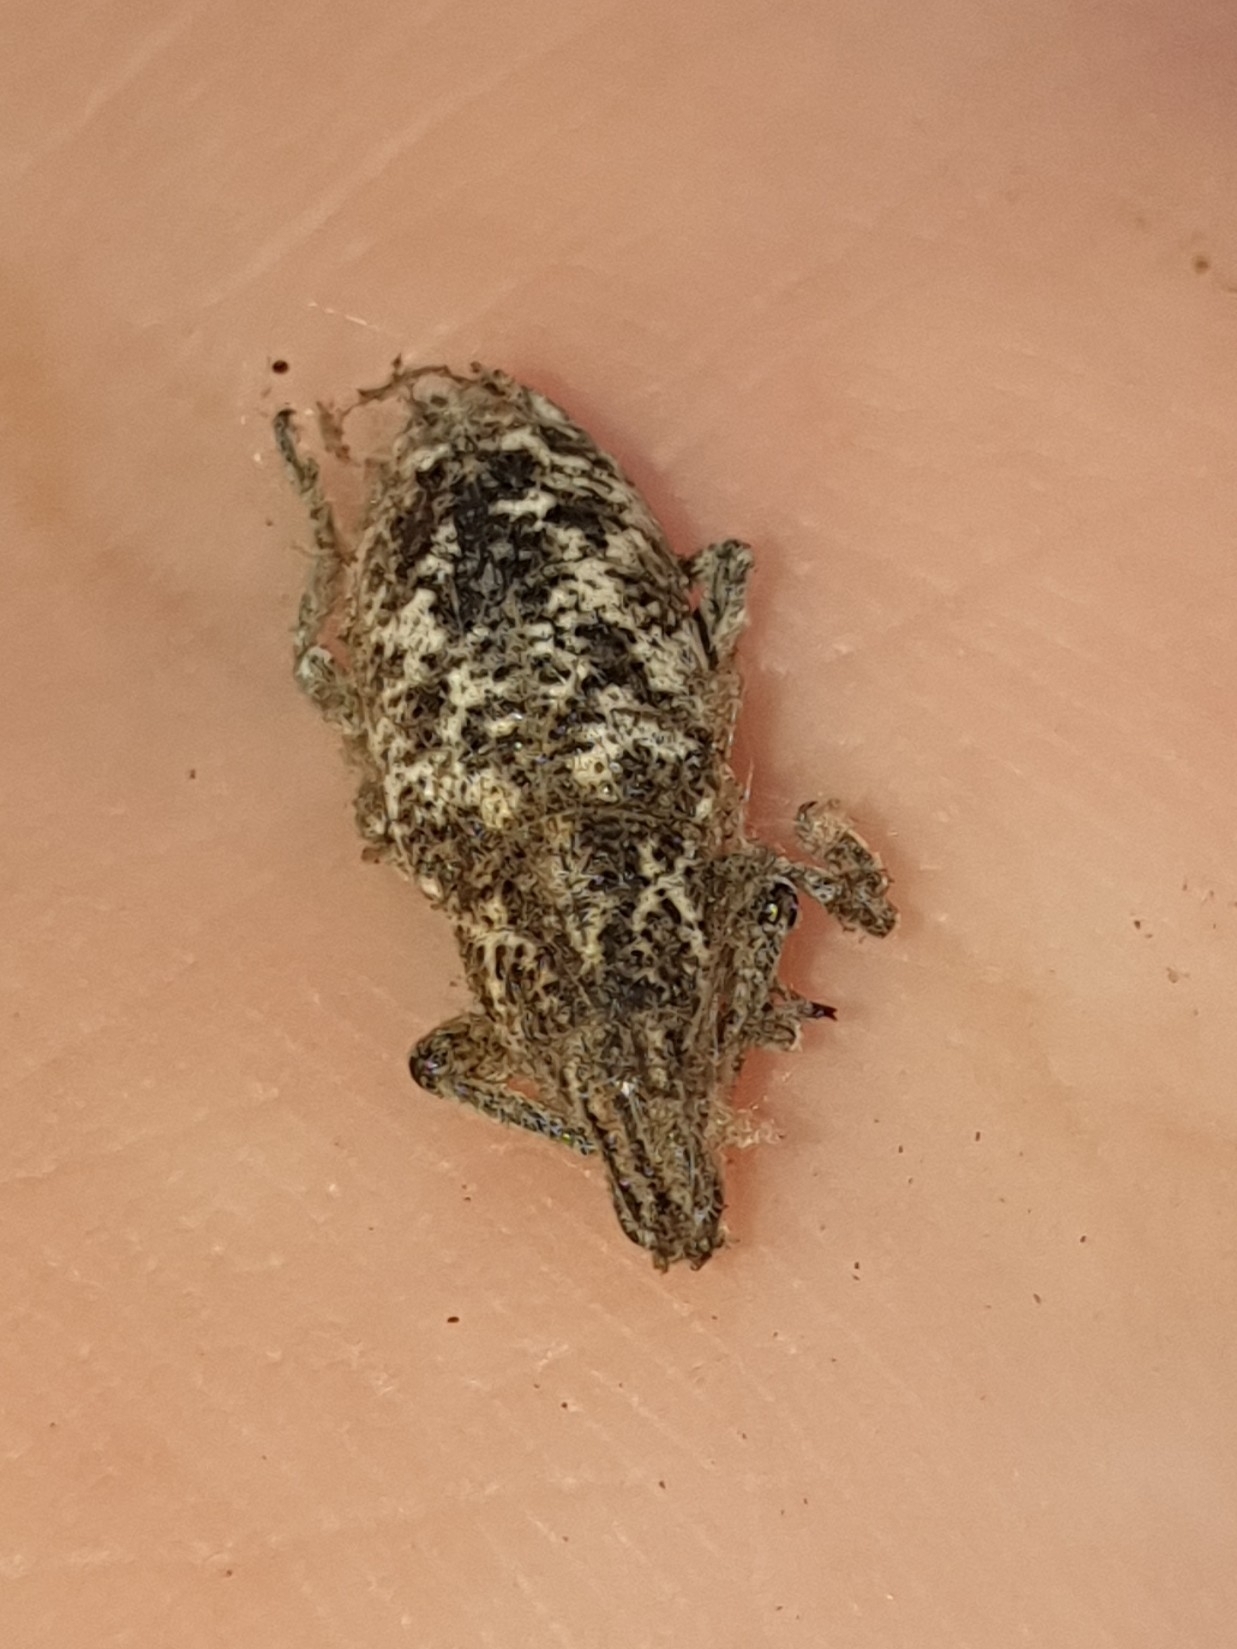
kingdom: Animalia
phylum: Arthropoda
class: Insecta
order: Coleoptera
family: Curculionidae
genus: Cyphocleonus
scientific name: Cyphocleonus dealbatus
